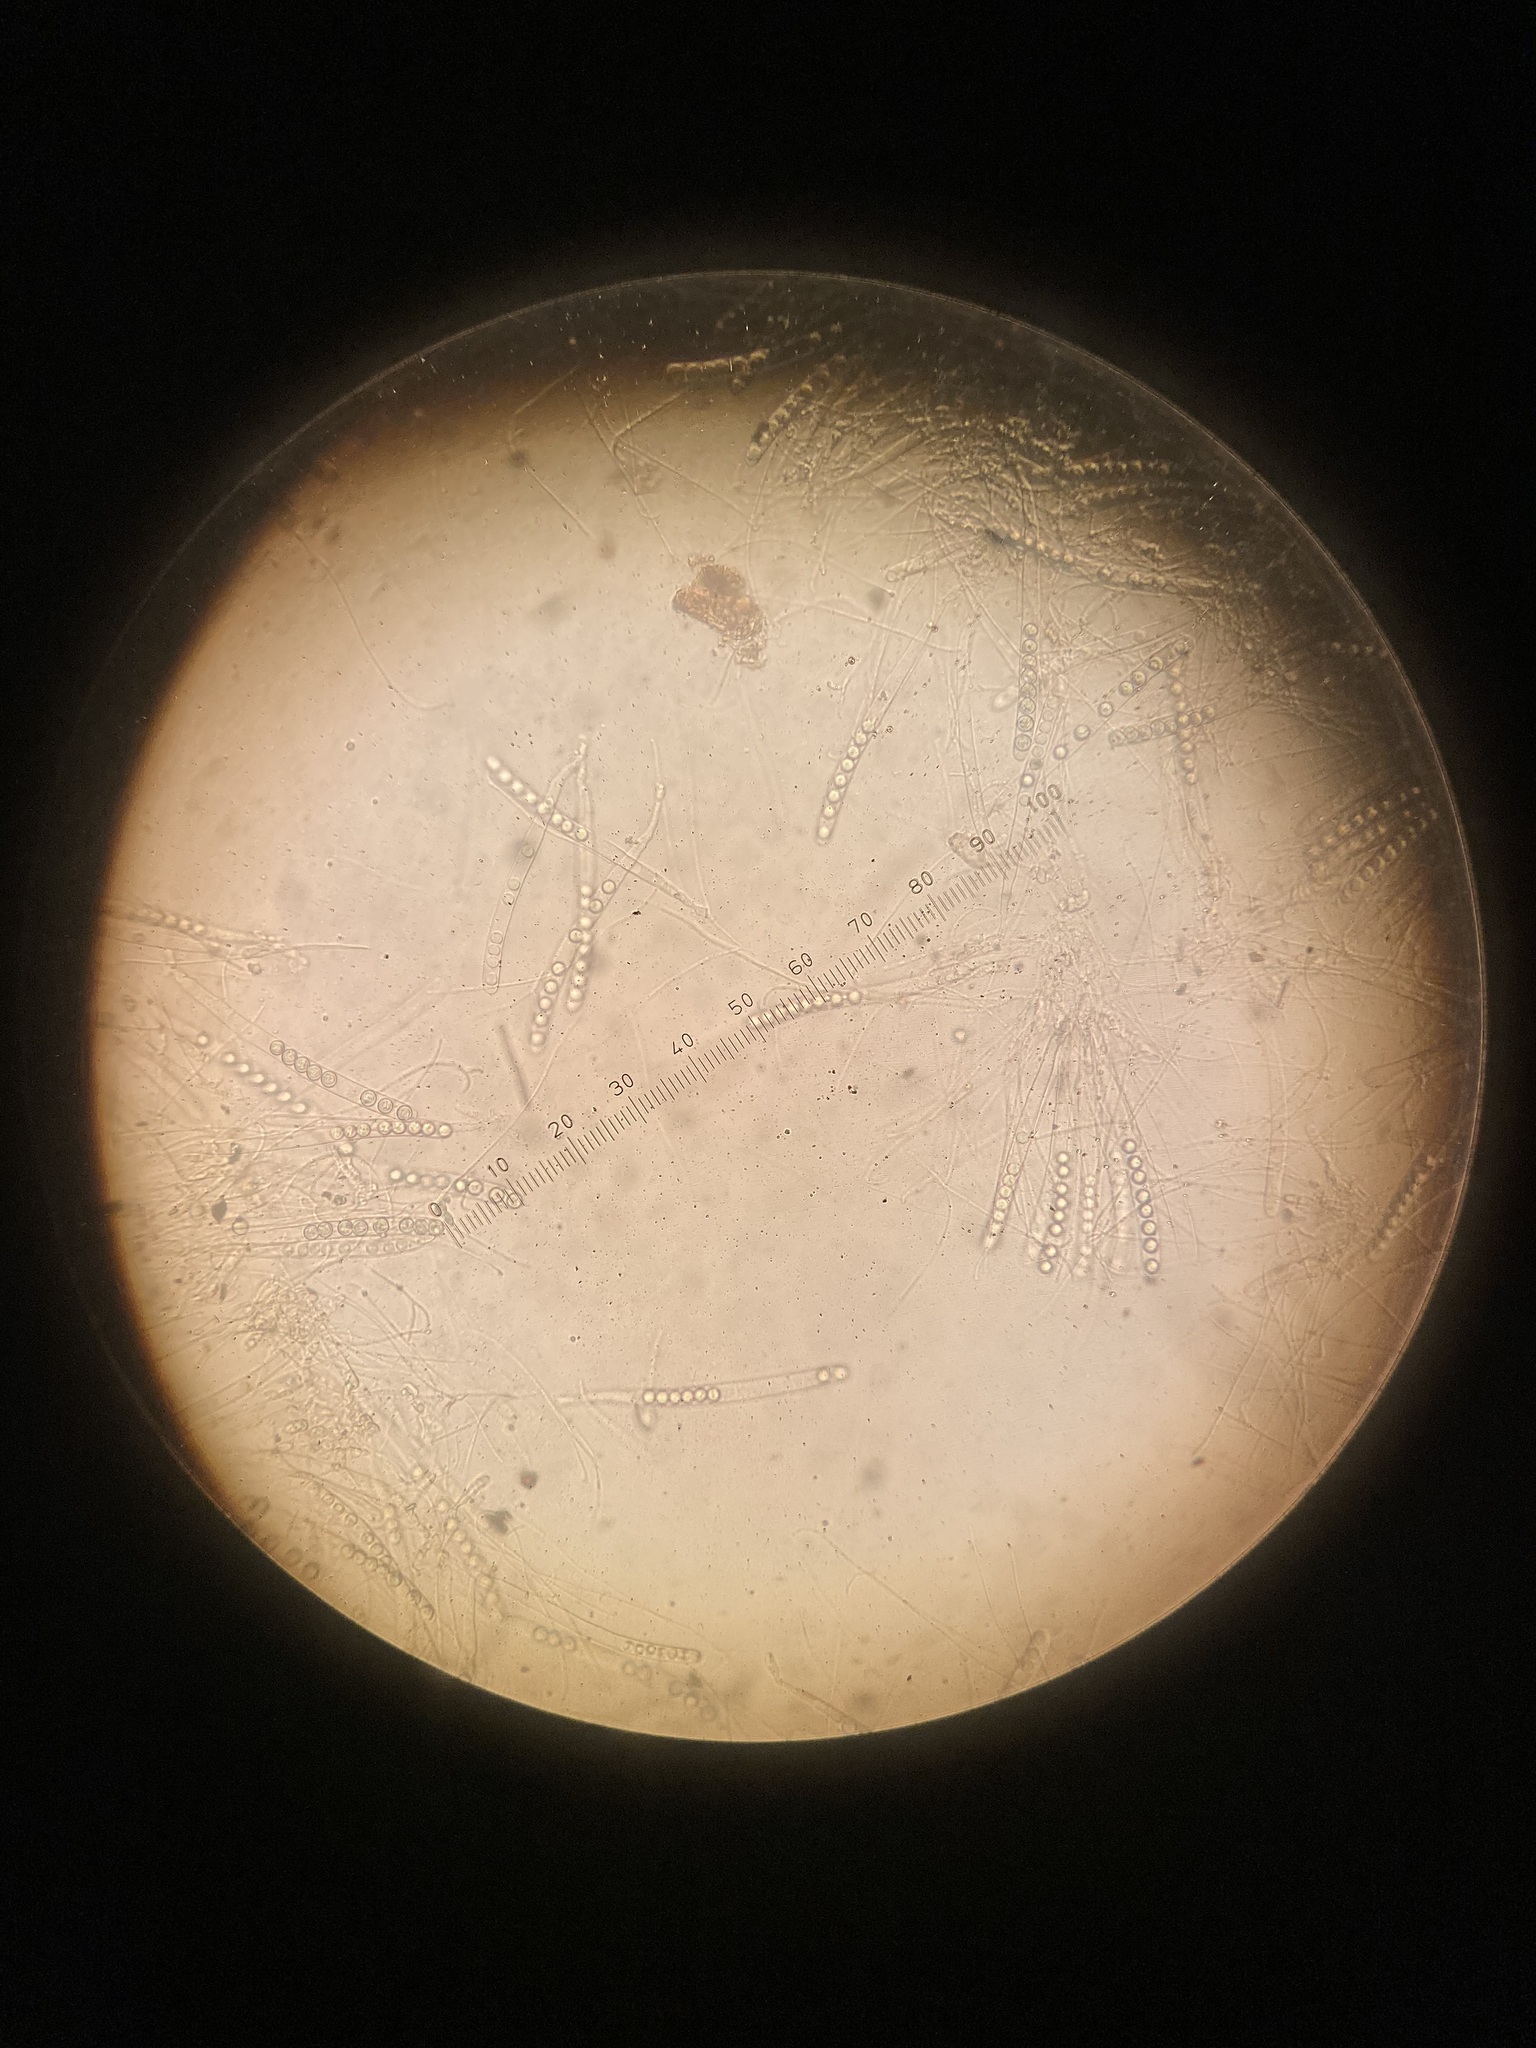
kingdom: Fungi
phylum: Ascomycota
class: Pezizomycetes
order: Pezizales
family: Pulvinulaceae
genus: Pulvinula
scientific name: Pulvinula archeri
